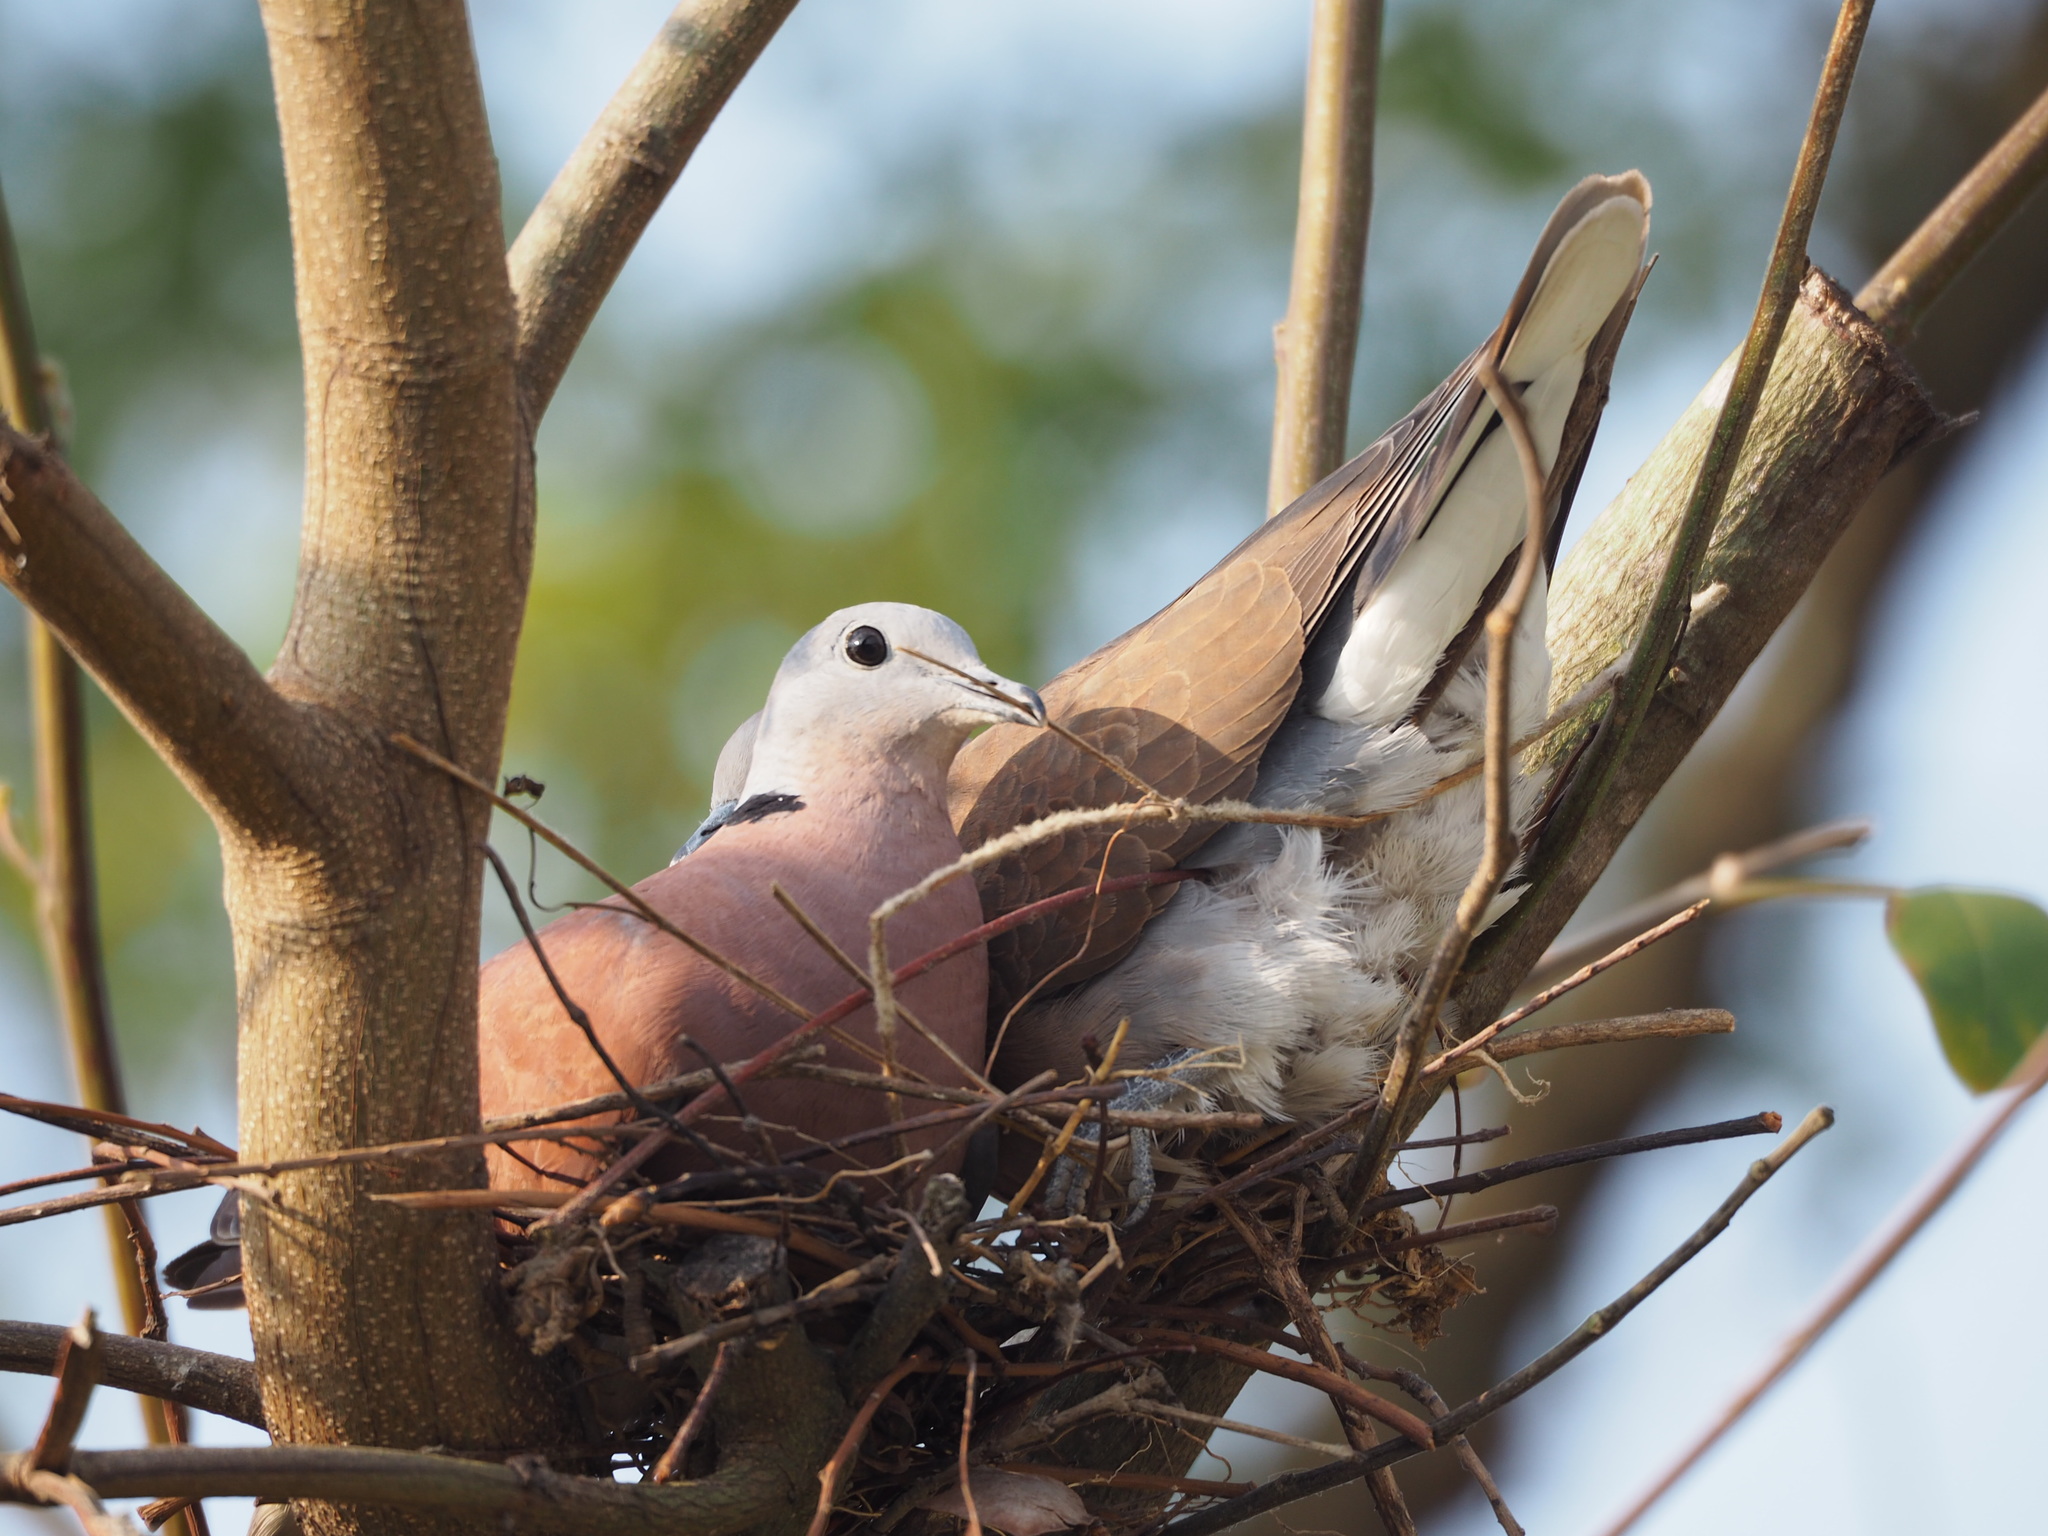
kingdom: Animalia
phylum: Chordata
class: Aves
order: Columbiformes
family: Columbidae
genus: Streptopelia
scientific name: Streptopelia tranquebarica
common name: Red turtle dove
